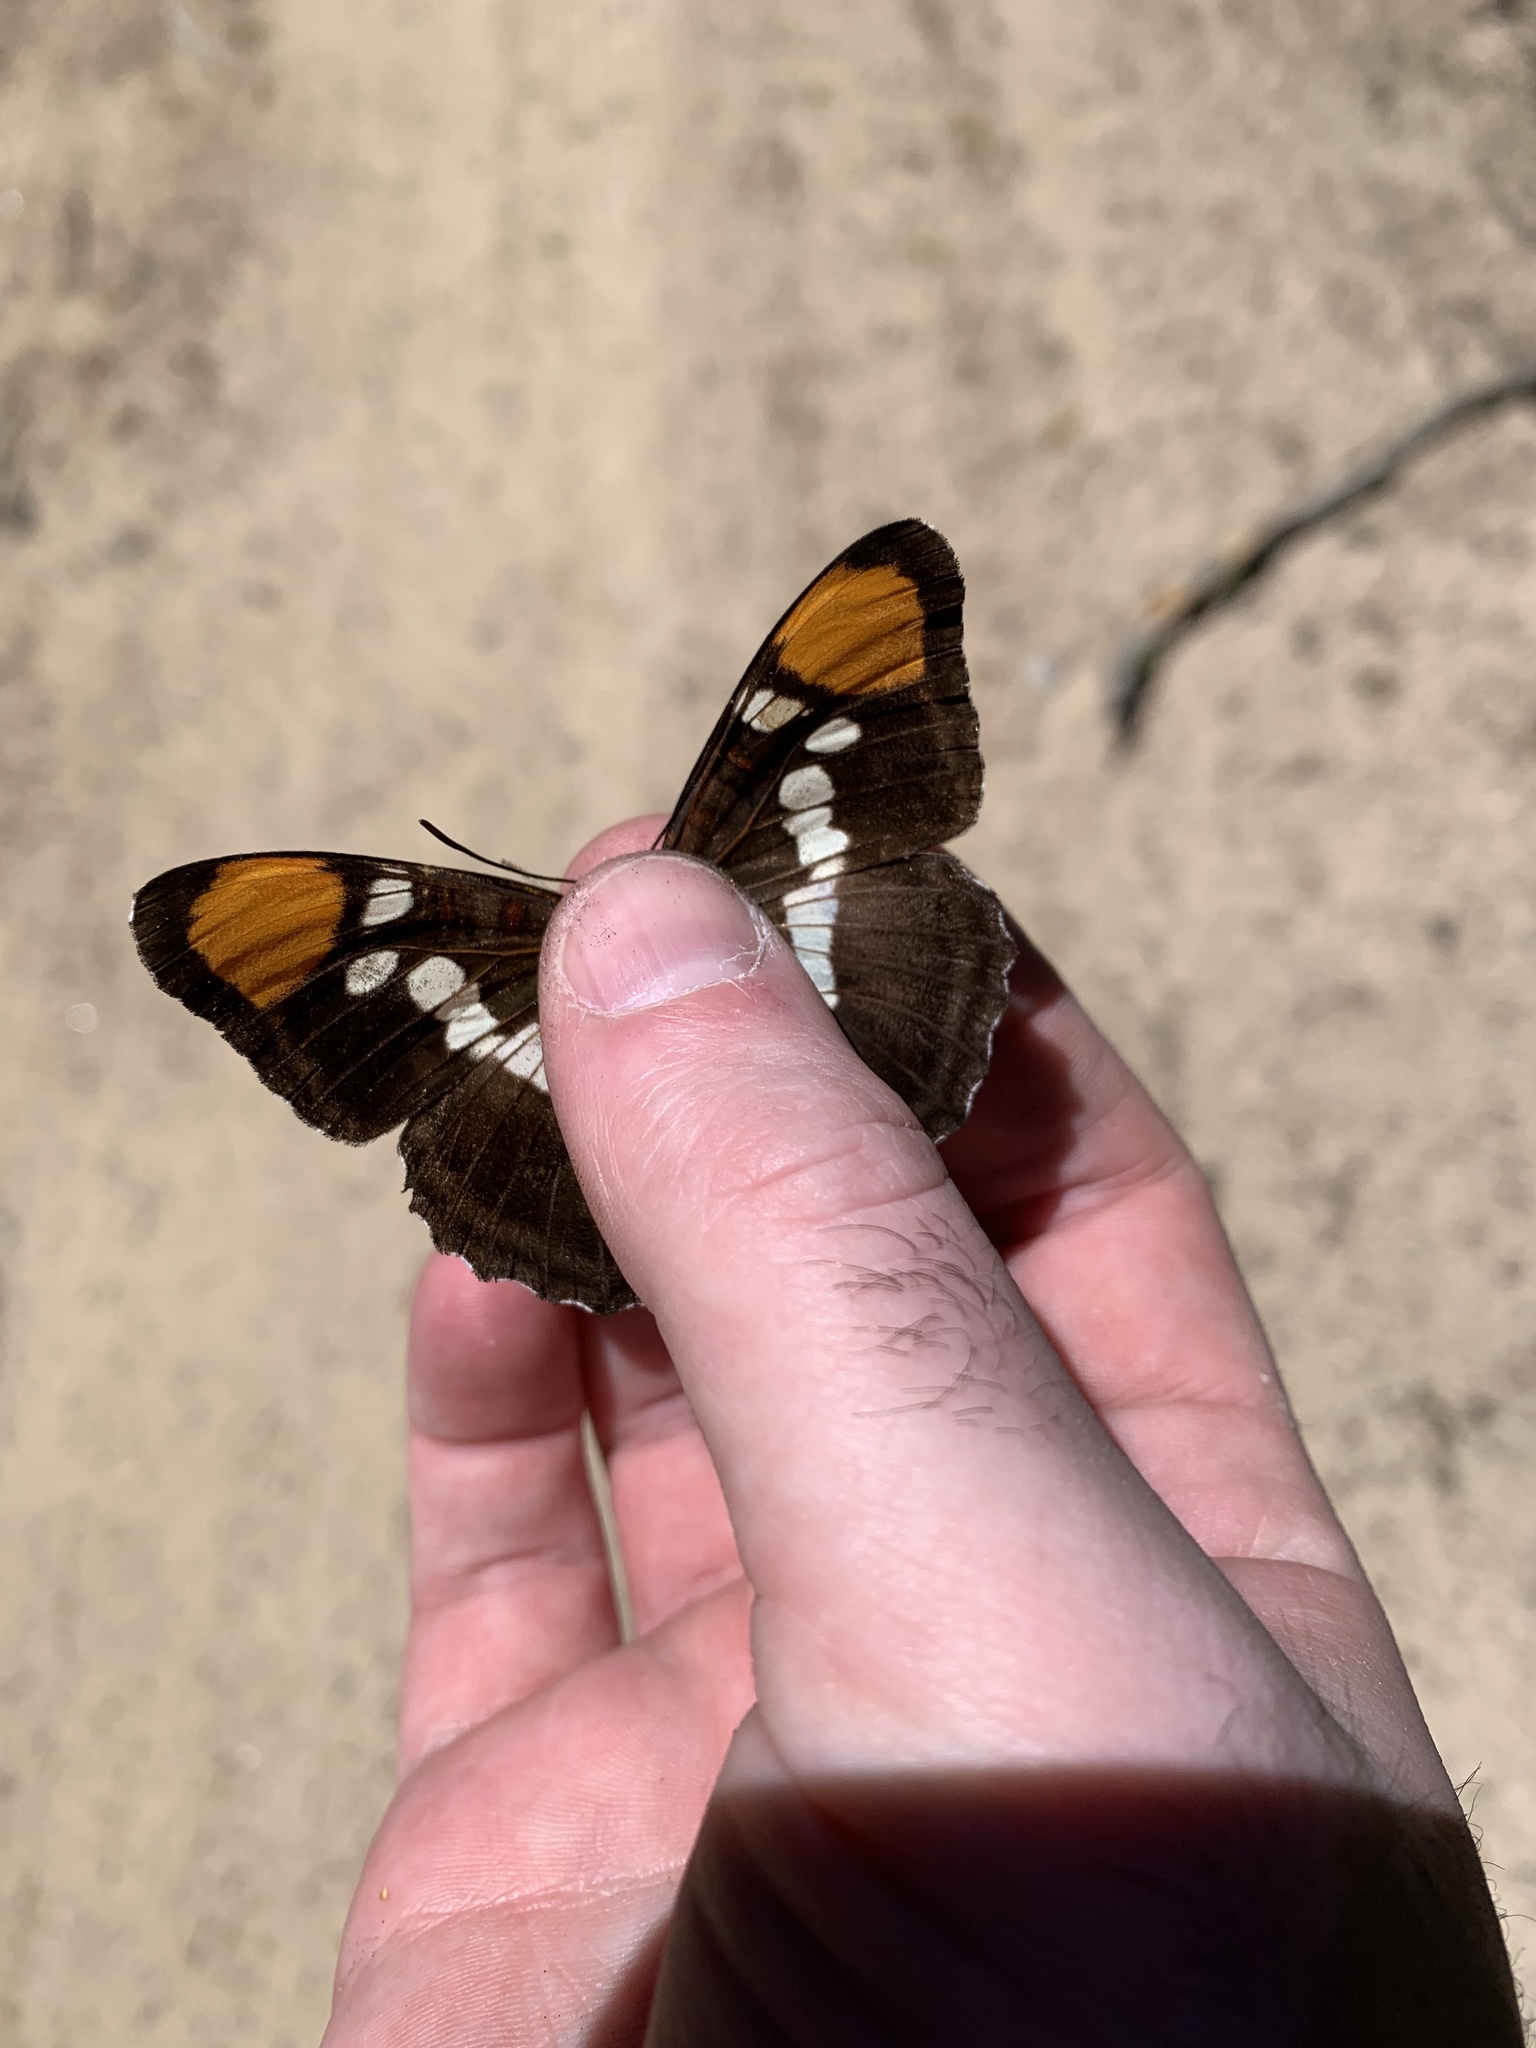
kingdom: Animalia
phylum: Arthropoda
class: Insecta
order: Lepidoptera
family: Nymphalidae
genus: Limenitis
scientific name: Limenitis bredowii
